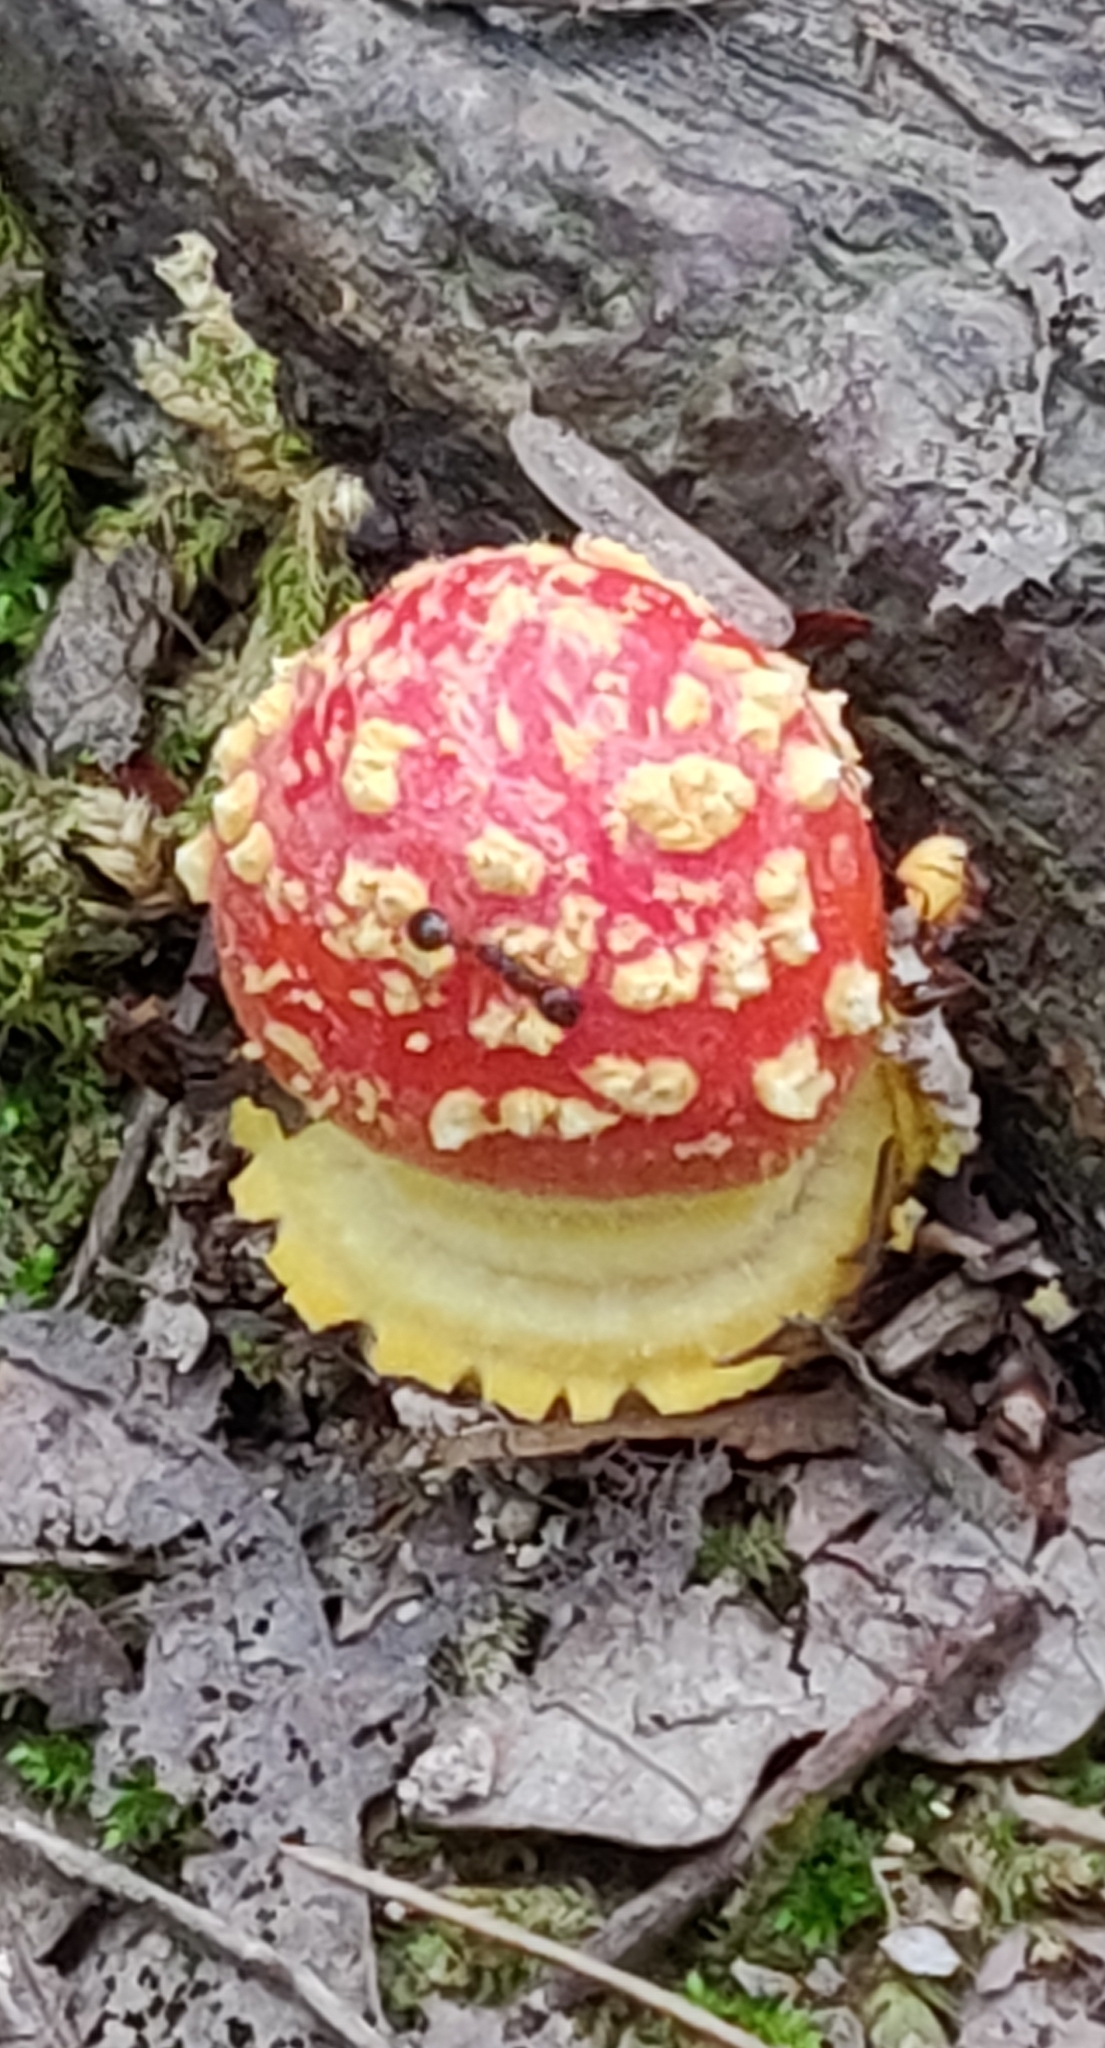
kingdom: Fungi
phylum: Basidiomycota
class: Agaricomycetes
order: Agaricales
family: Amanitaceae
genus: Amanita
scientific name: Amanita parcivolvata
